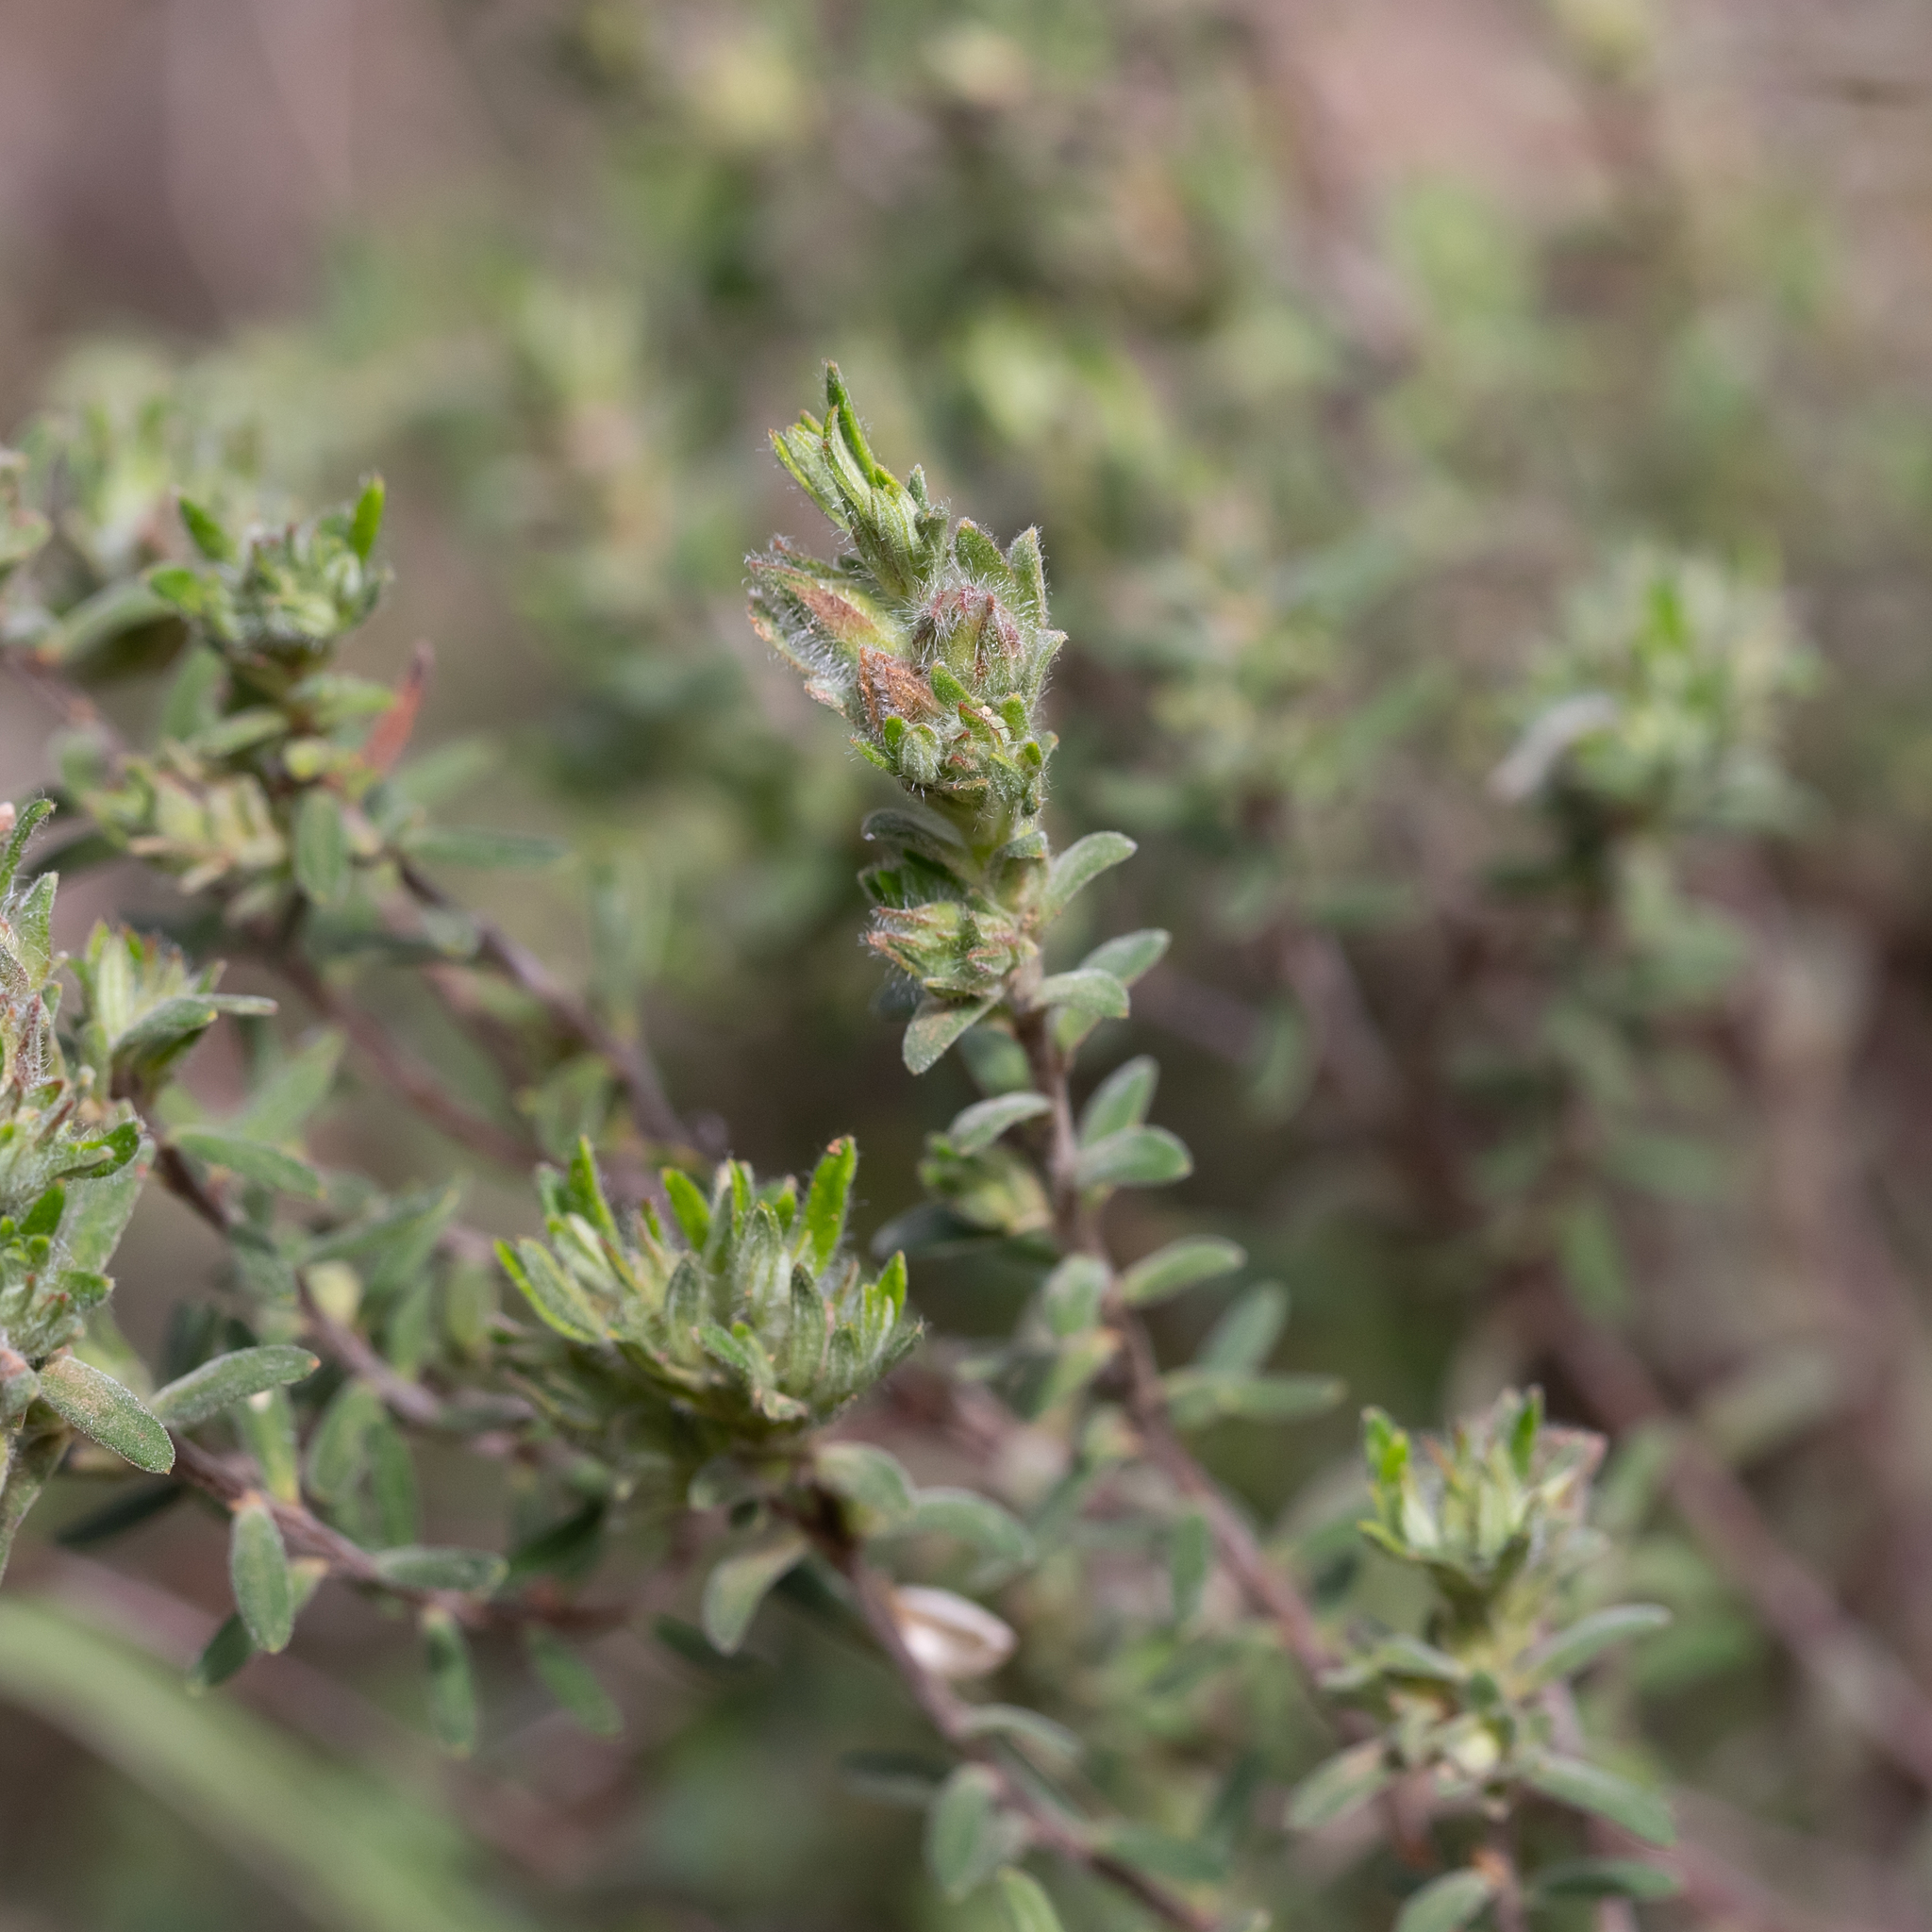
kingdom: Plantae
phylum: Tracheophyta
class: Magnoliopsida
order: Dilleniales
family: Dilleniaceae
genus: Hibbertia
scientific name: Hibbertia crinita
